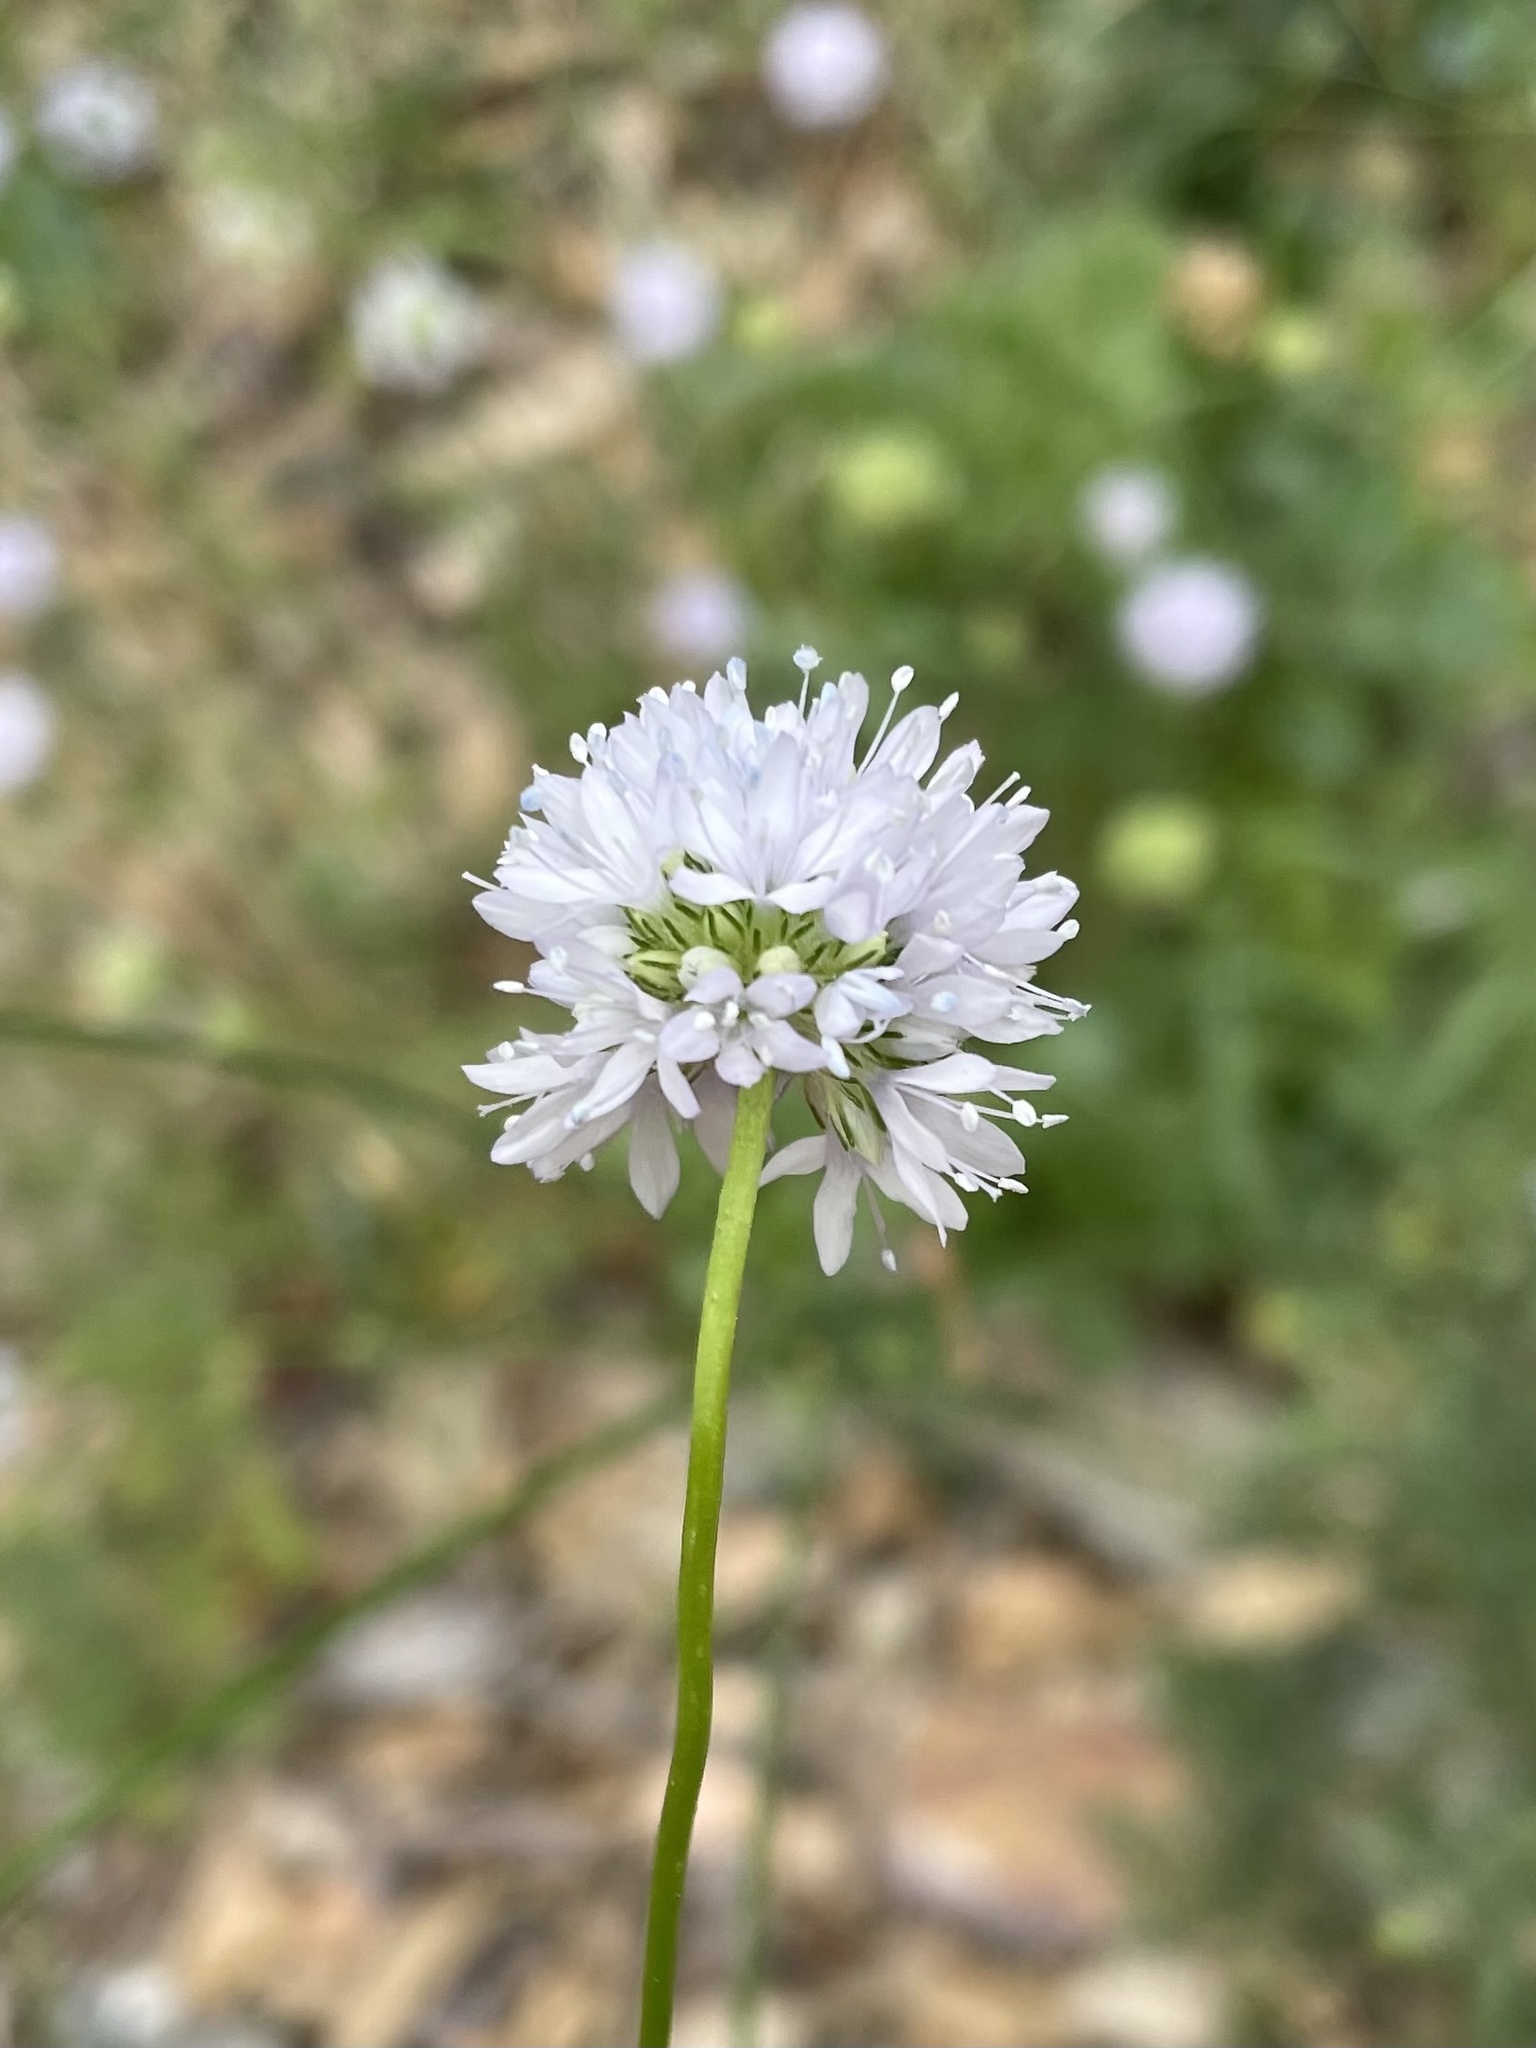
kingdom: Plantae
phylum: Tracheophyta
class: Magnoliopsida
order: Ericales
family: Polemoniaceae
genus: Gilia
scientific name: Gilia capitata
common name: Bluehead gilia
